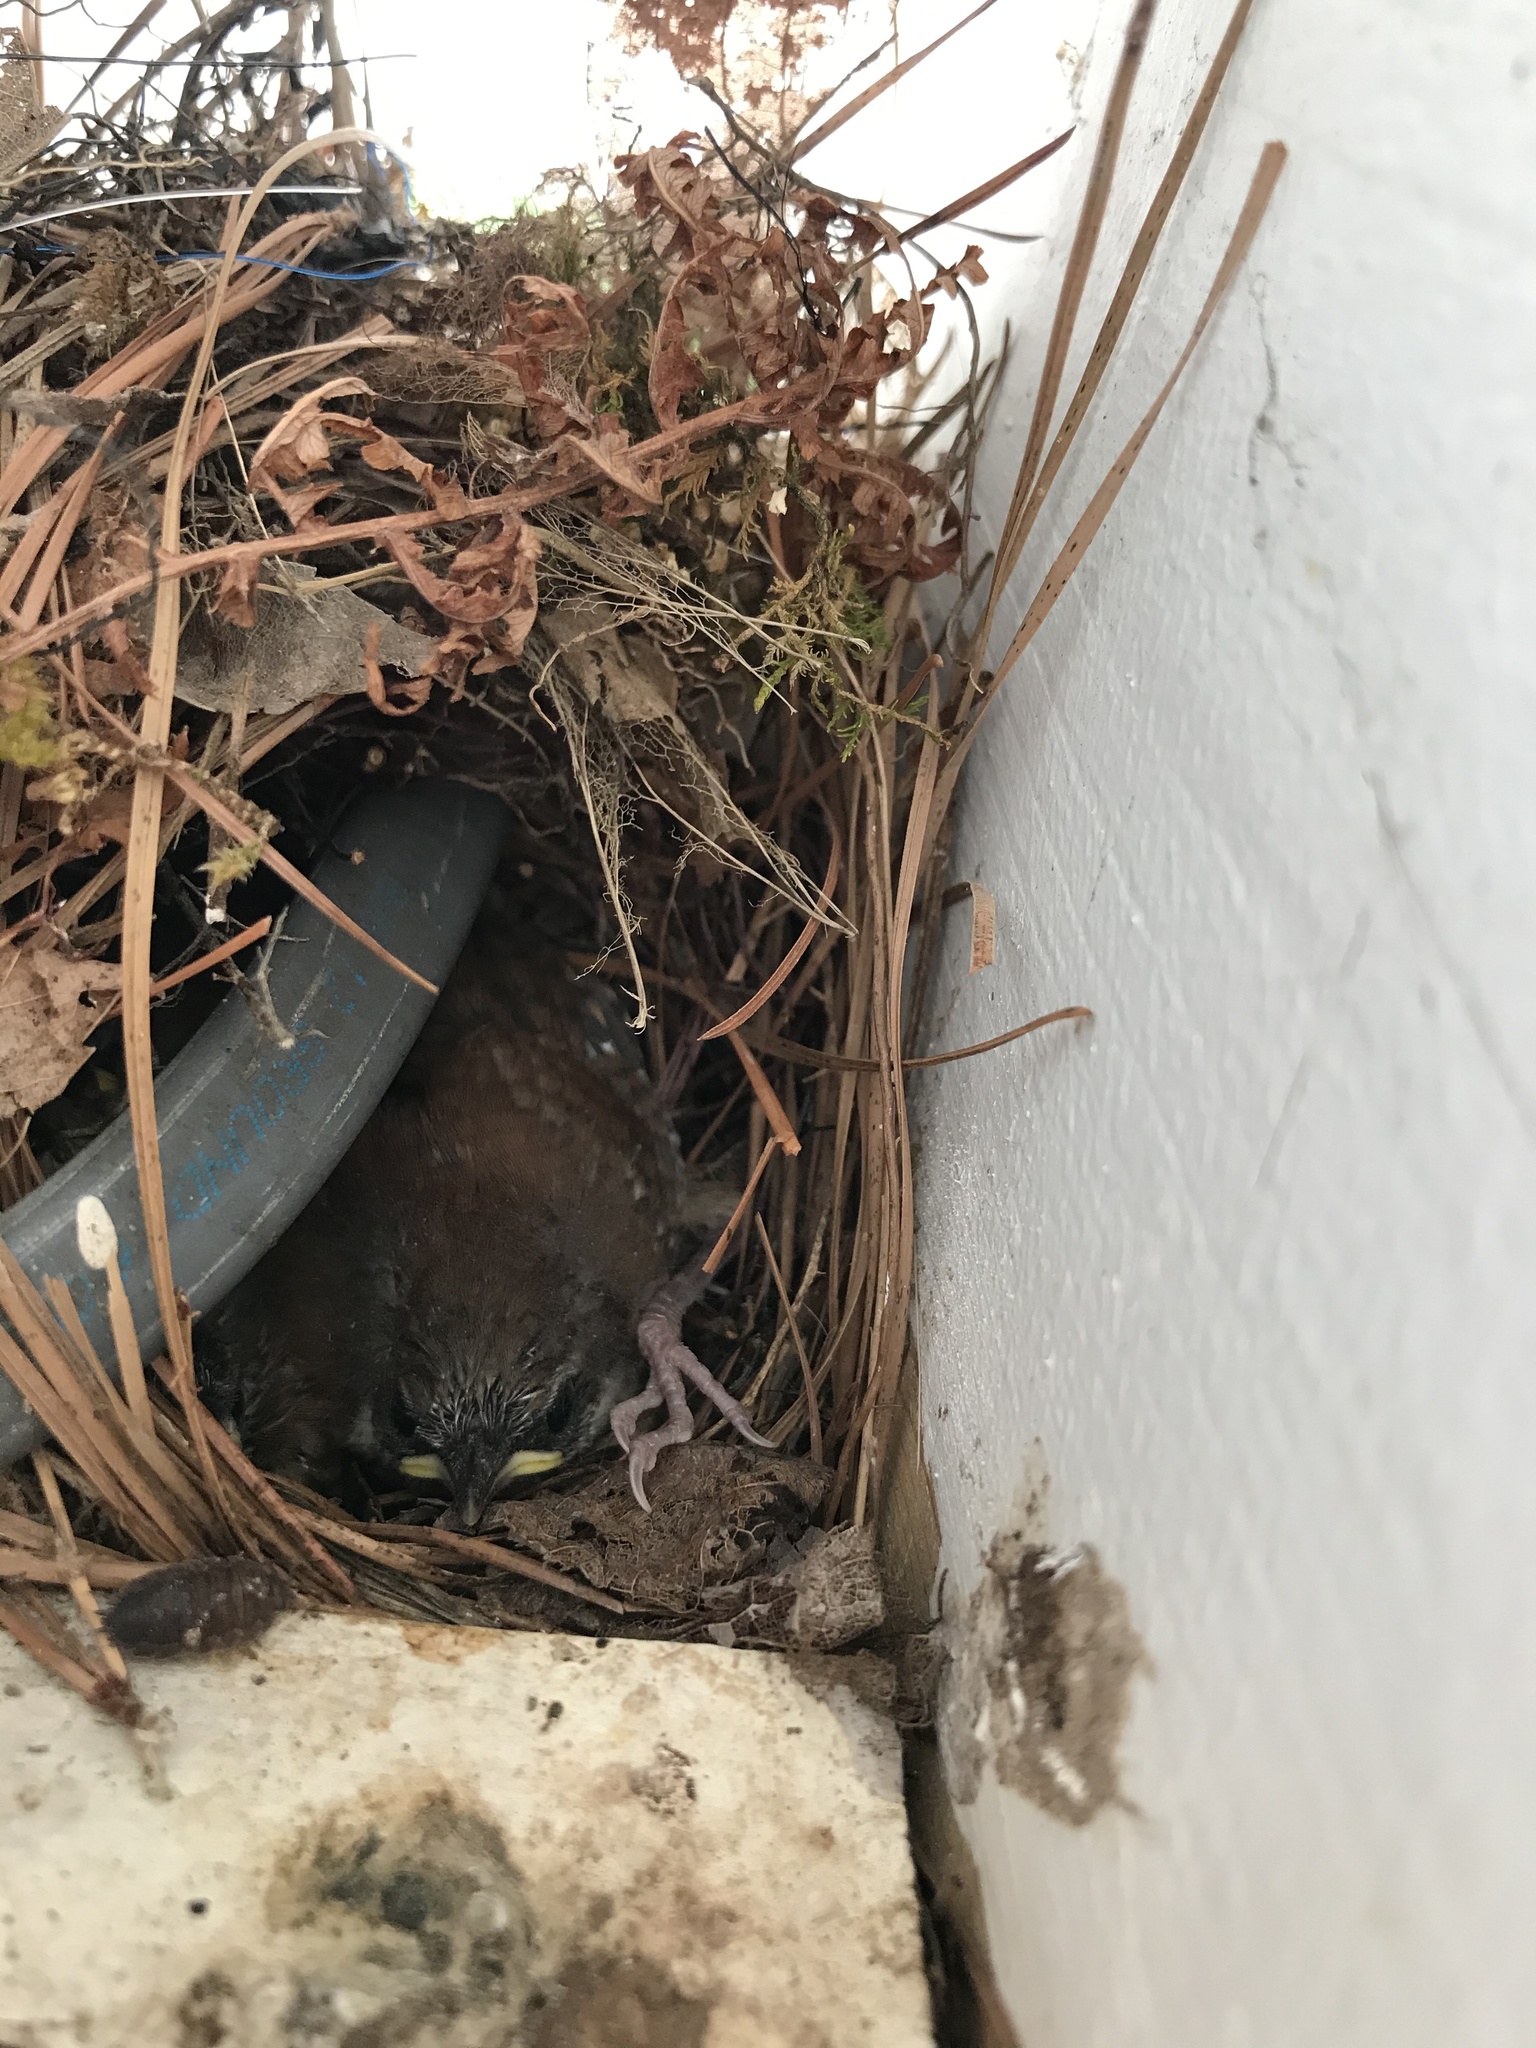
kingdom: Animalia
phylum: Chordata
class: Aves
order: Passeriformes
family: Troglodytidae
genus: Thryothorus
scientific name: Thryothorus ludovicianus
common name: Carolina wren
